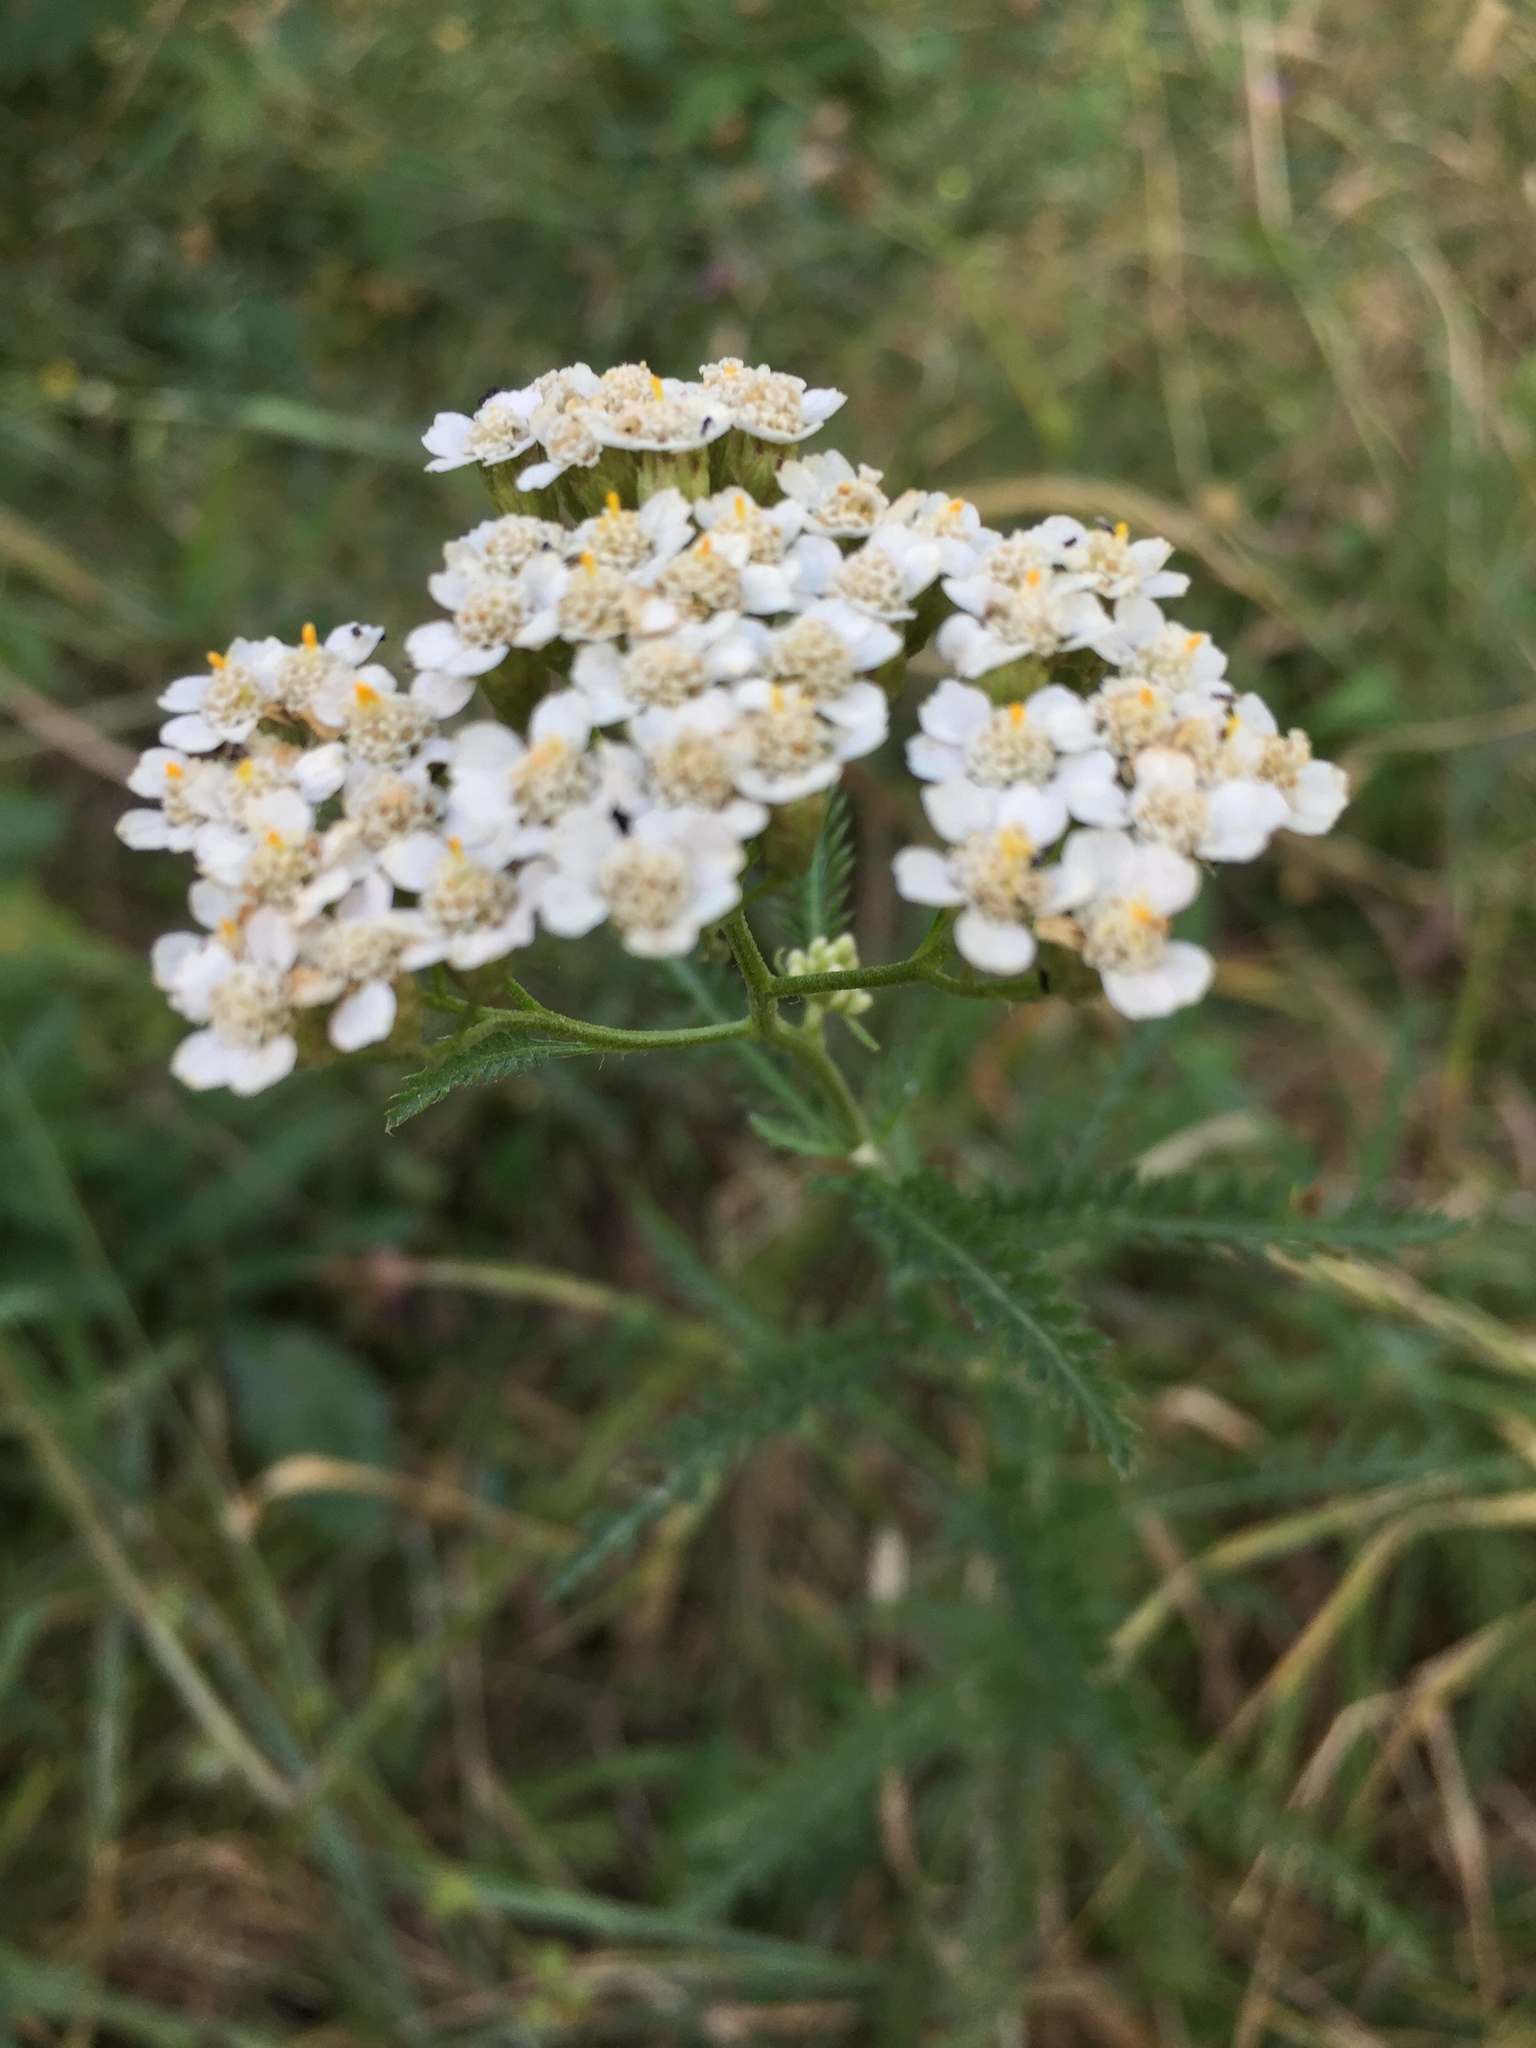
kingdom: Plantae
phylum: Tracheophyta
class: Magnoliopsida
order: Asterales
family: Asteraceae
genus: Achillea
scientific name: Achillea millefolium
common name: Yarrow
